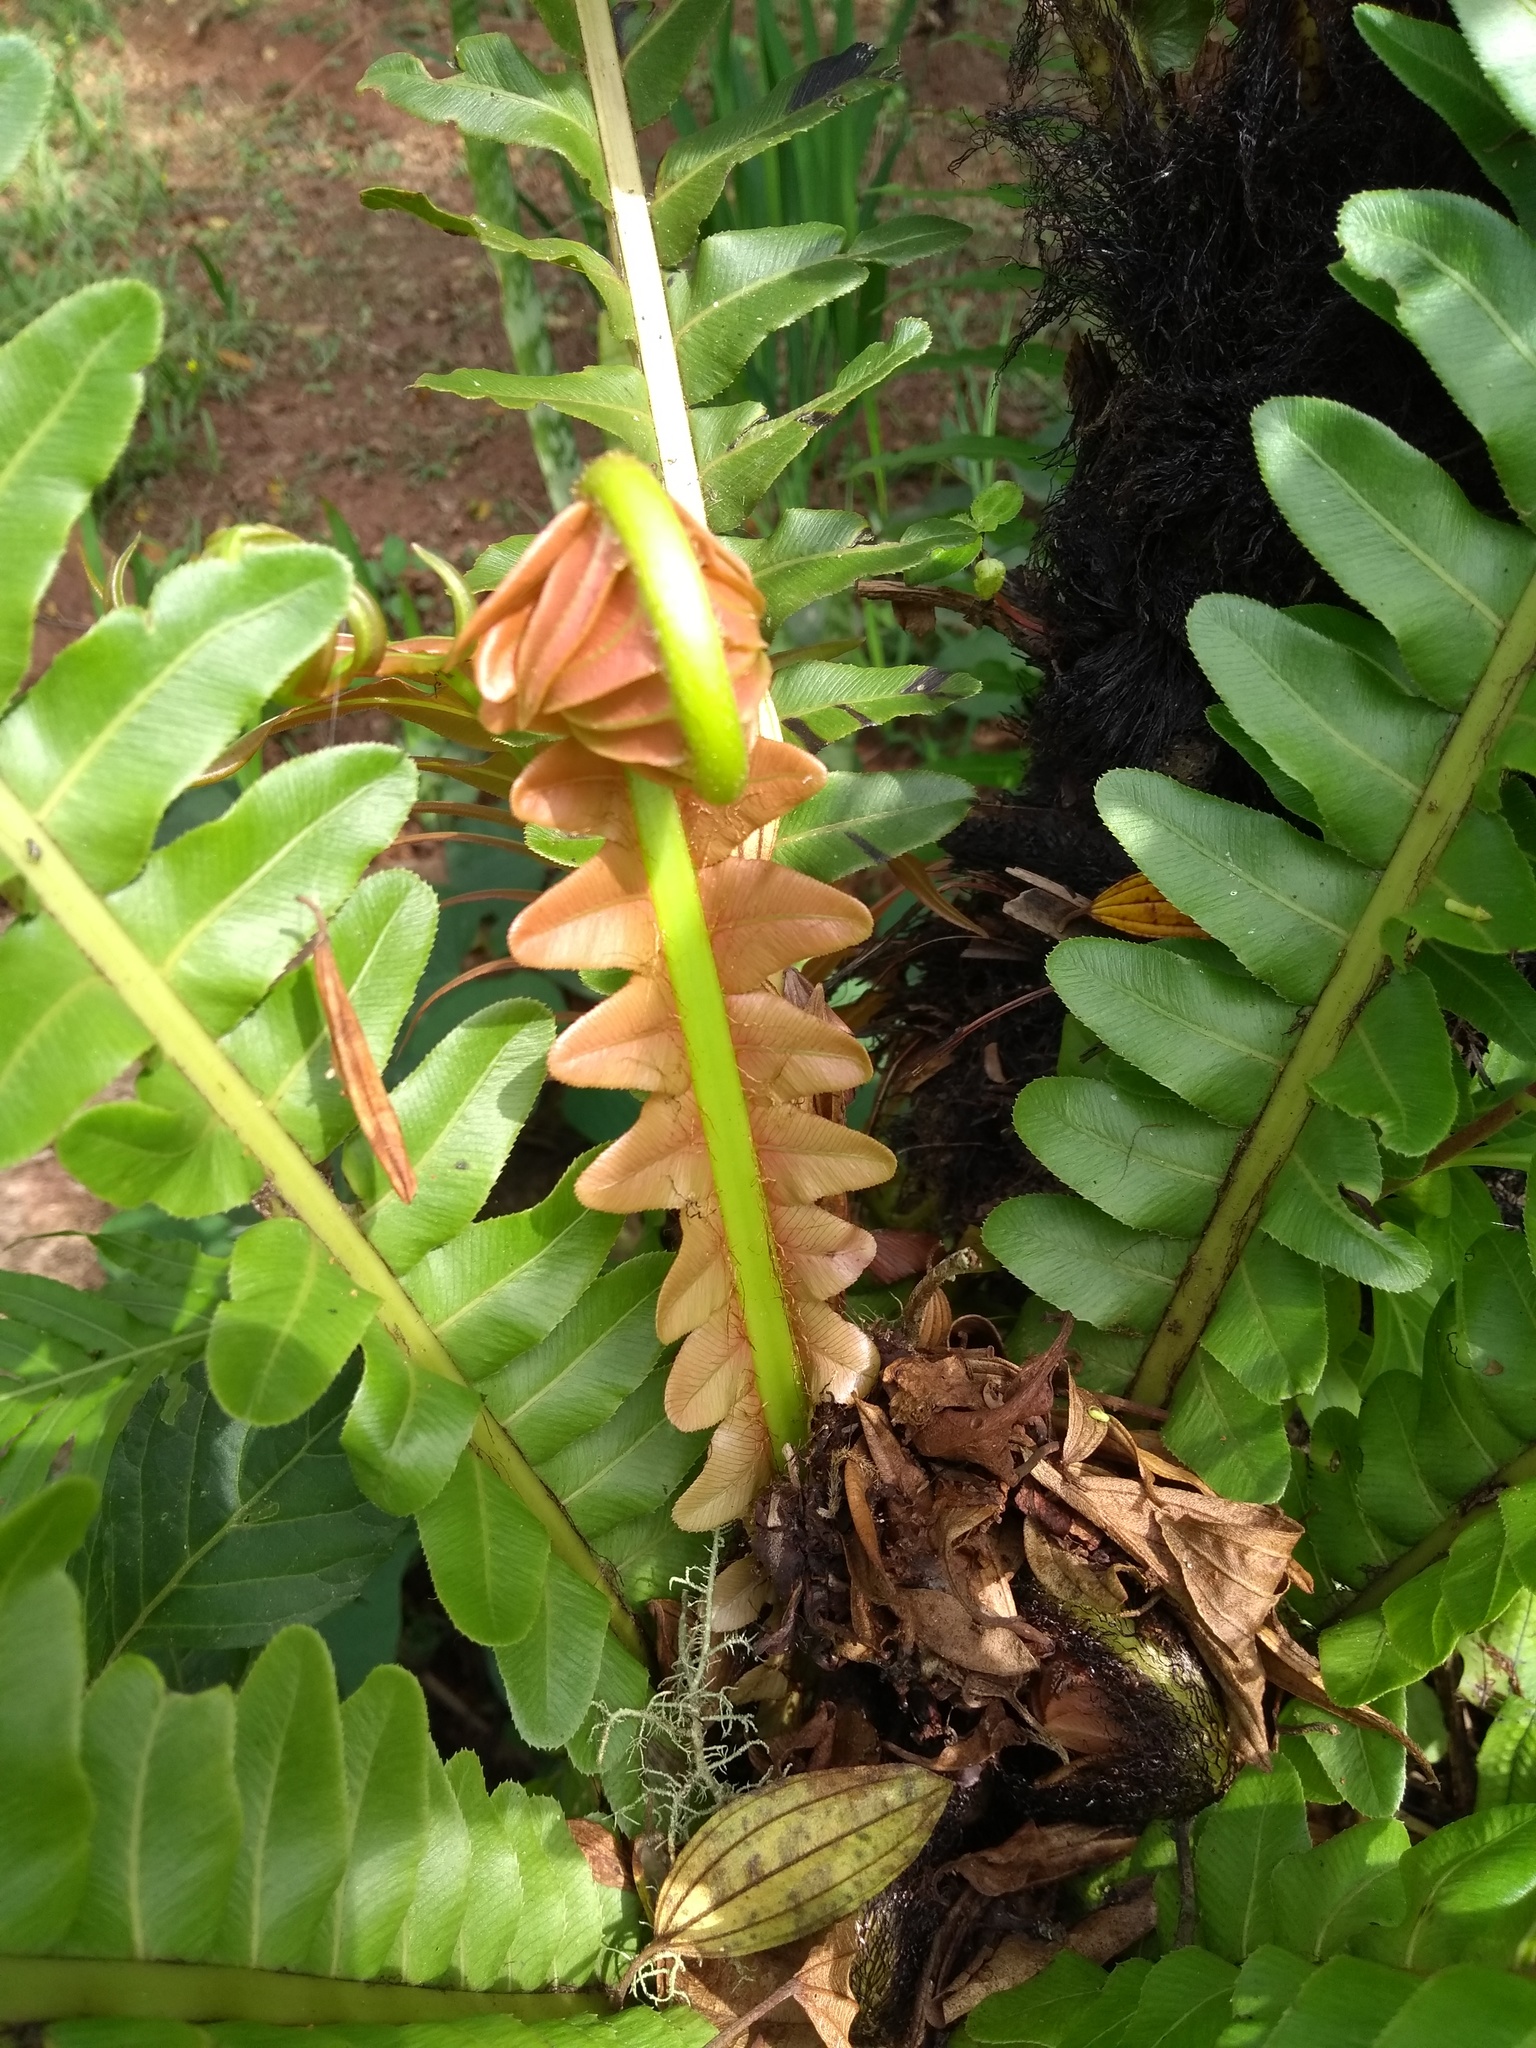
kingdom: Plantae
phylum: Tracheophyta
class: Polypodiopsida
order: Polypodiales
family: Blechnaceae
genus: Neoblechnum
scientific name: Neoblechnum brasiliense
